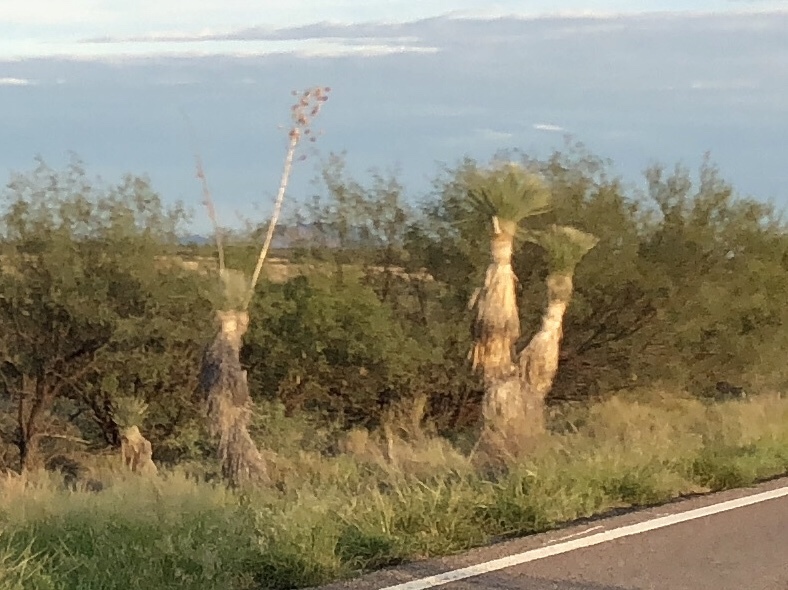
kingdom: Plantae
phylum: Tracheophyta
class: Liliopsida
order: Asparagales
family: Asparagaceae
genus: Yucca
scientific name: Yucca elata
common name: Palmella
